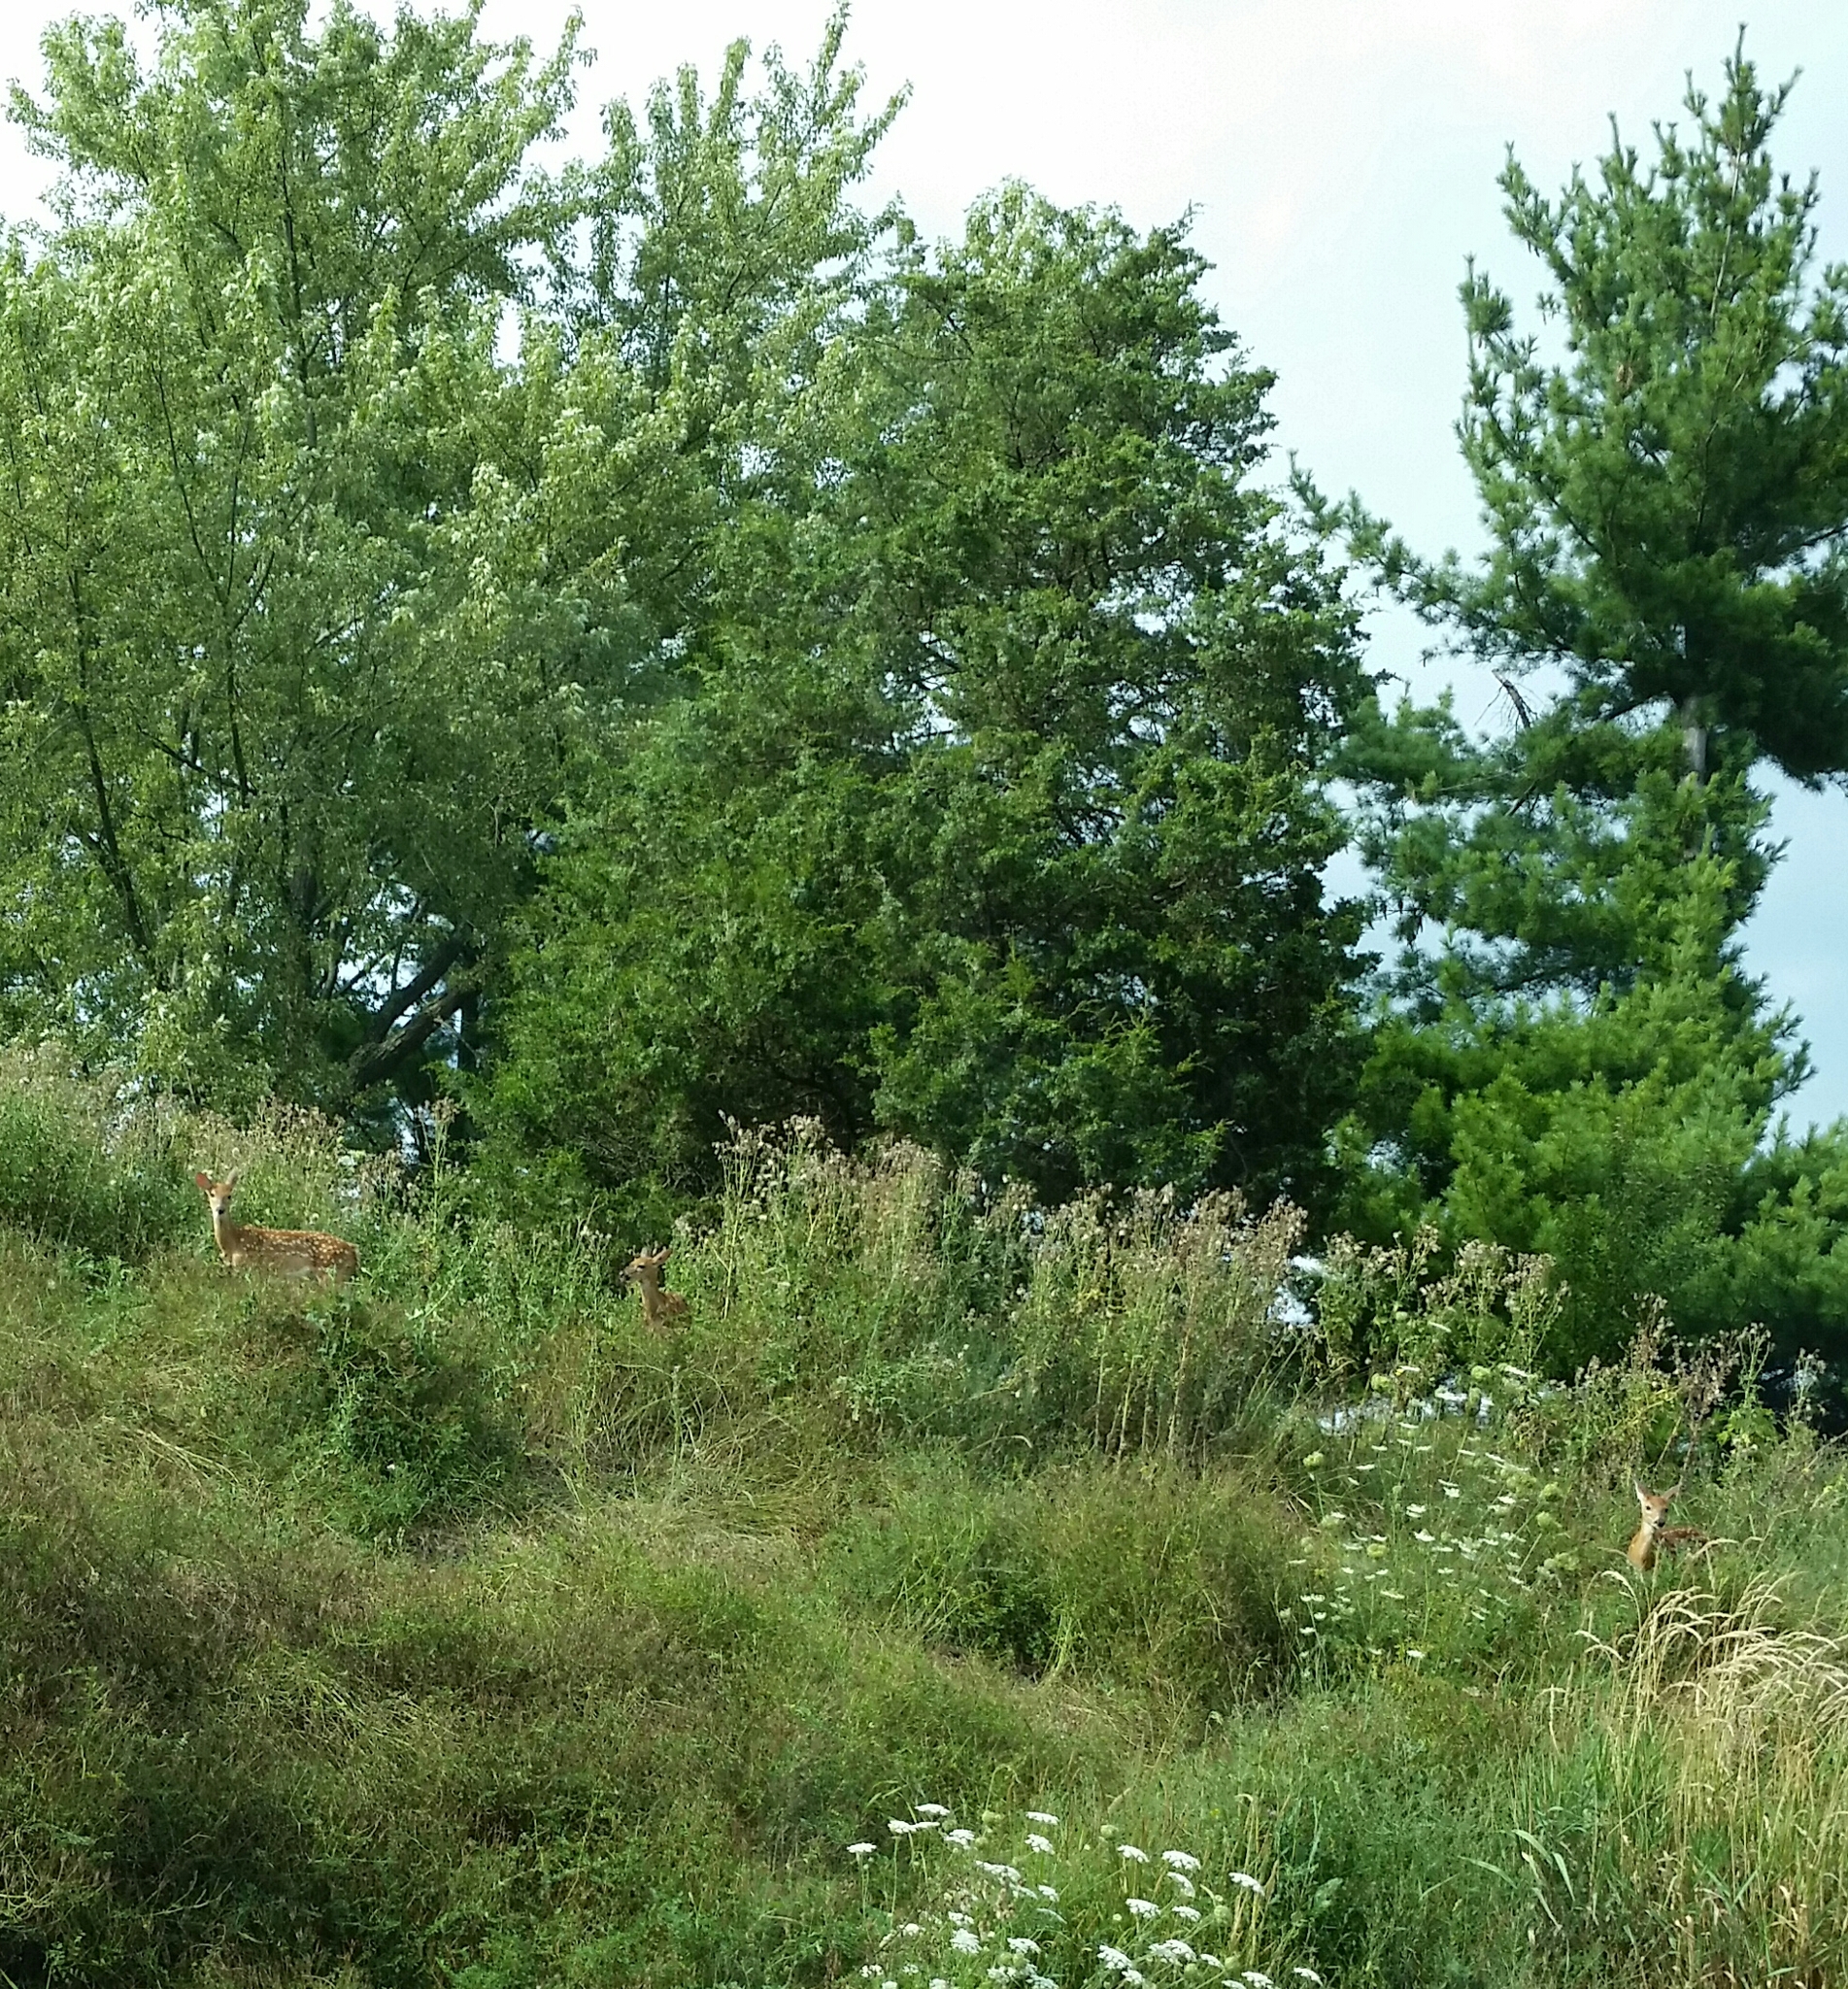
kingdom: Animalia
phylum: Chordata
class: Mammalia
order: Artiodactyla
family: Cervidae
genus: Odocoileus
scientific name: Odocoileus virginianus
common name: White-tailed deer
